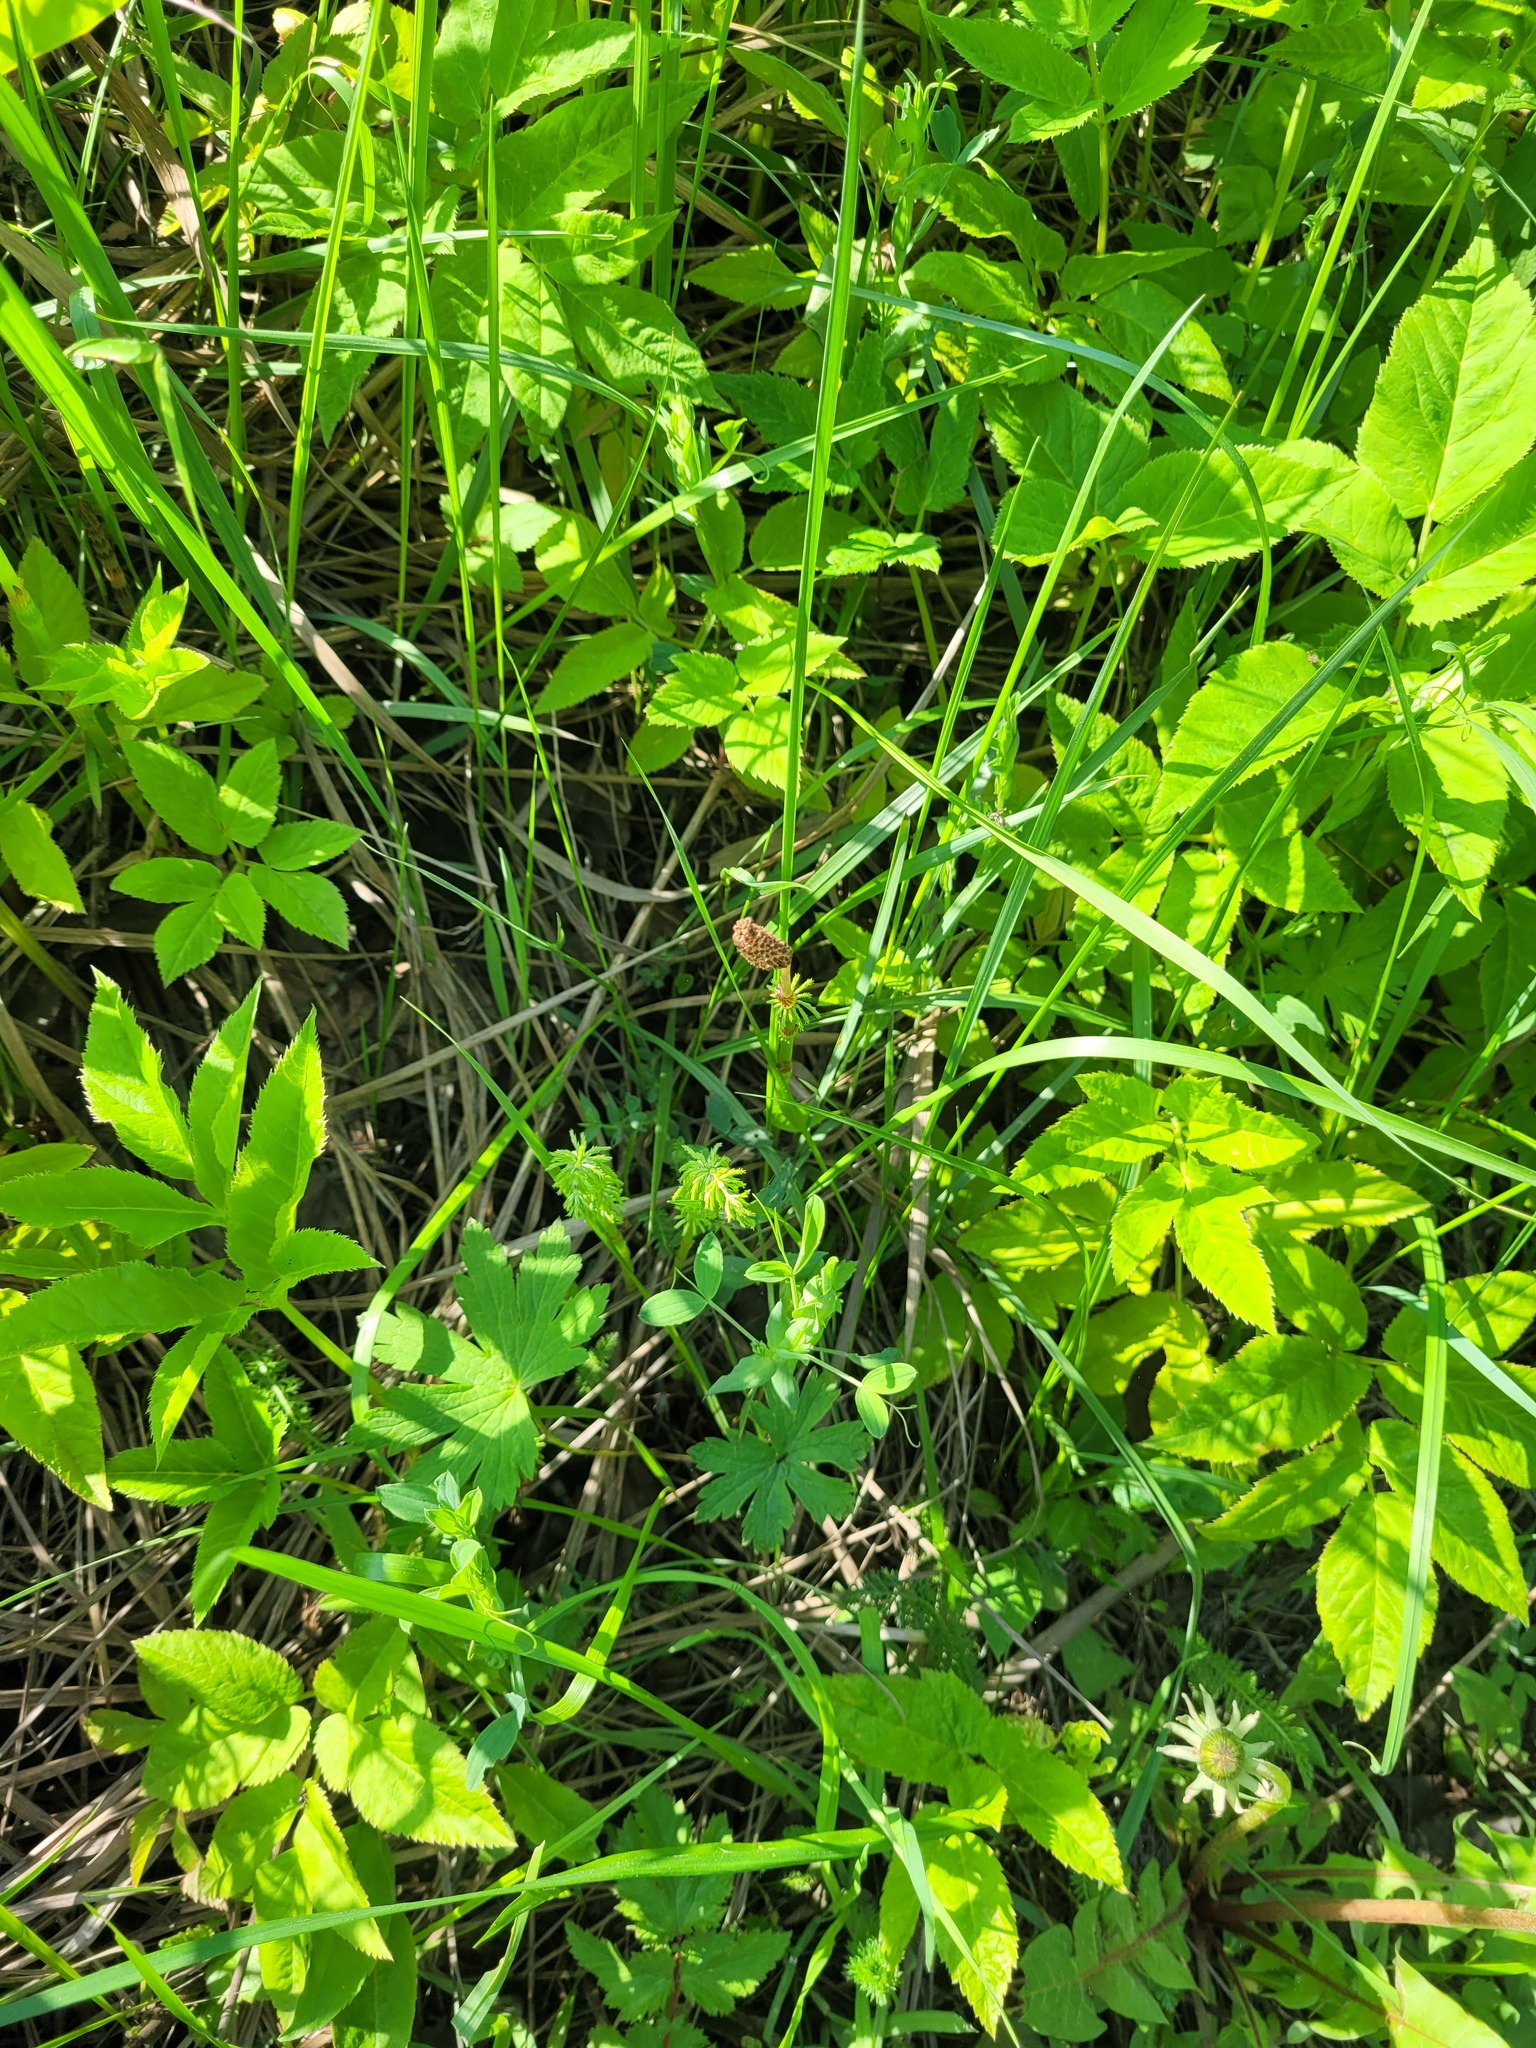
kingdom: Plantae
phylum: Tracheophyta
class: Polypodiopsida
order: Equisetales
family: Equisetaceae
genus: Equisetum
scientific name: Equisetum sylvaticum
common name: Wood horsetail
